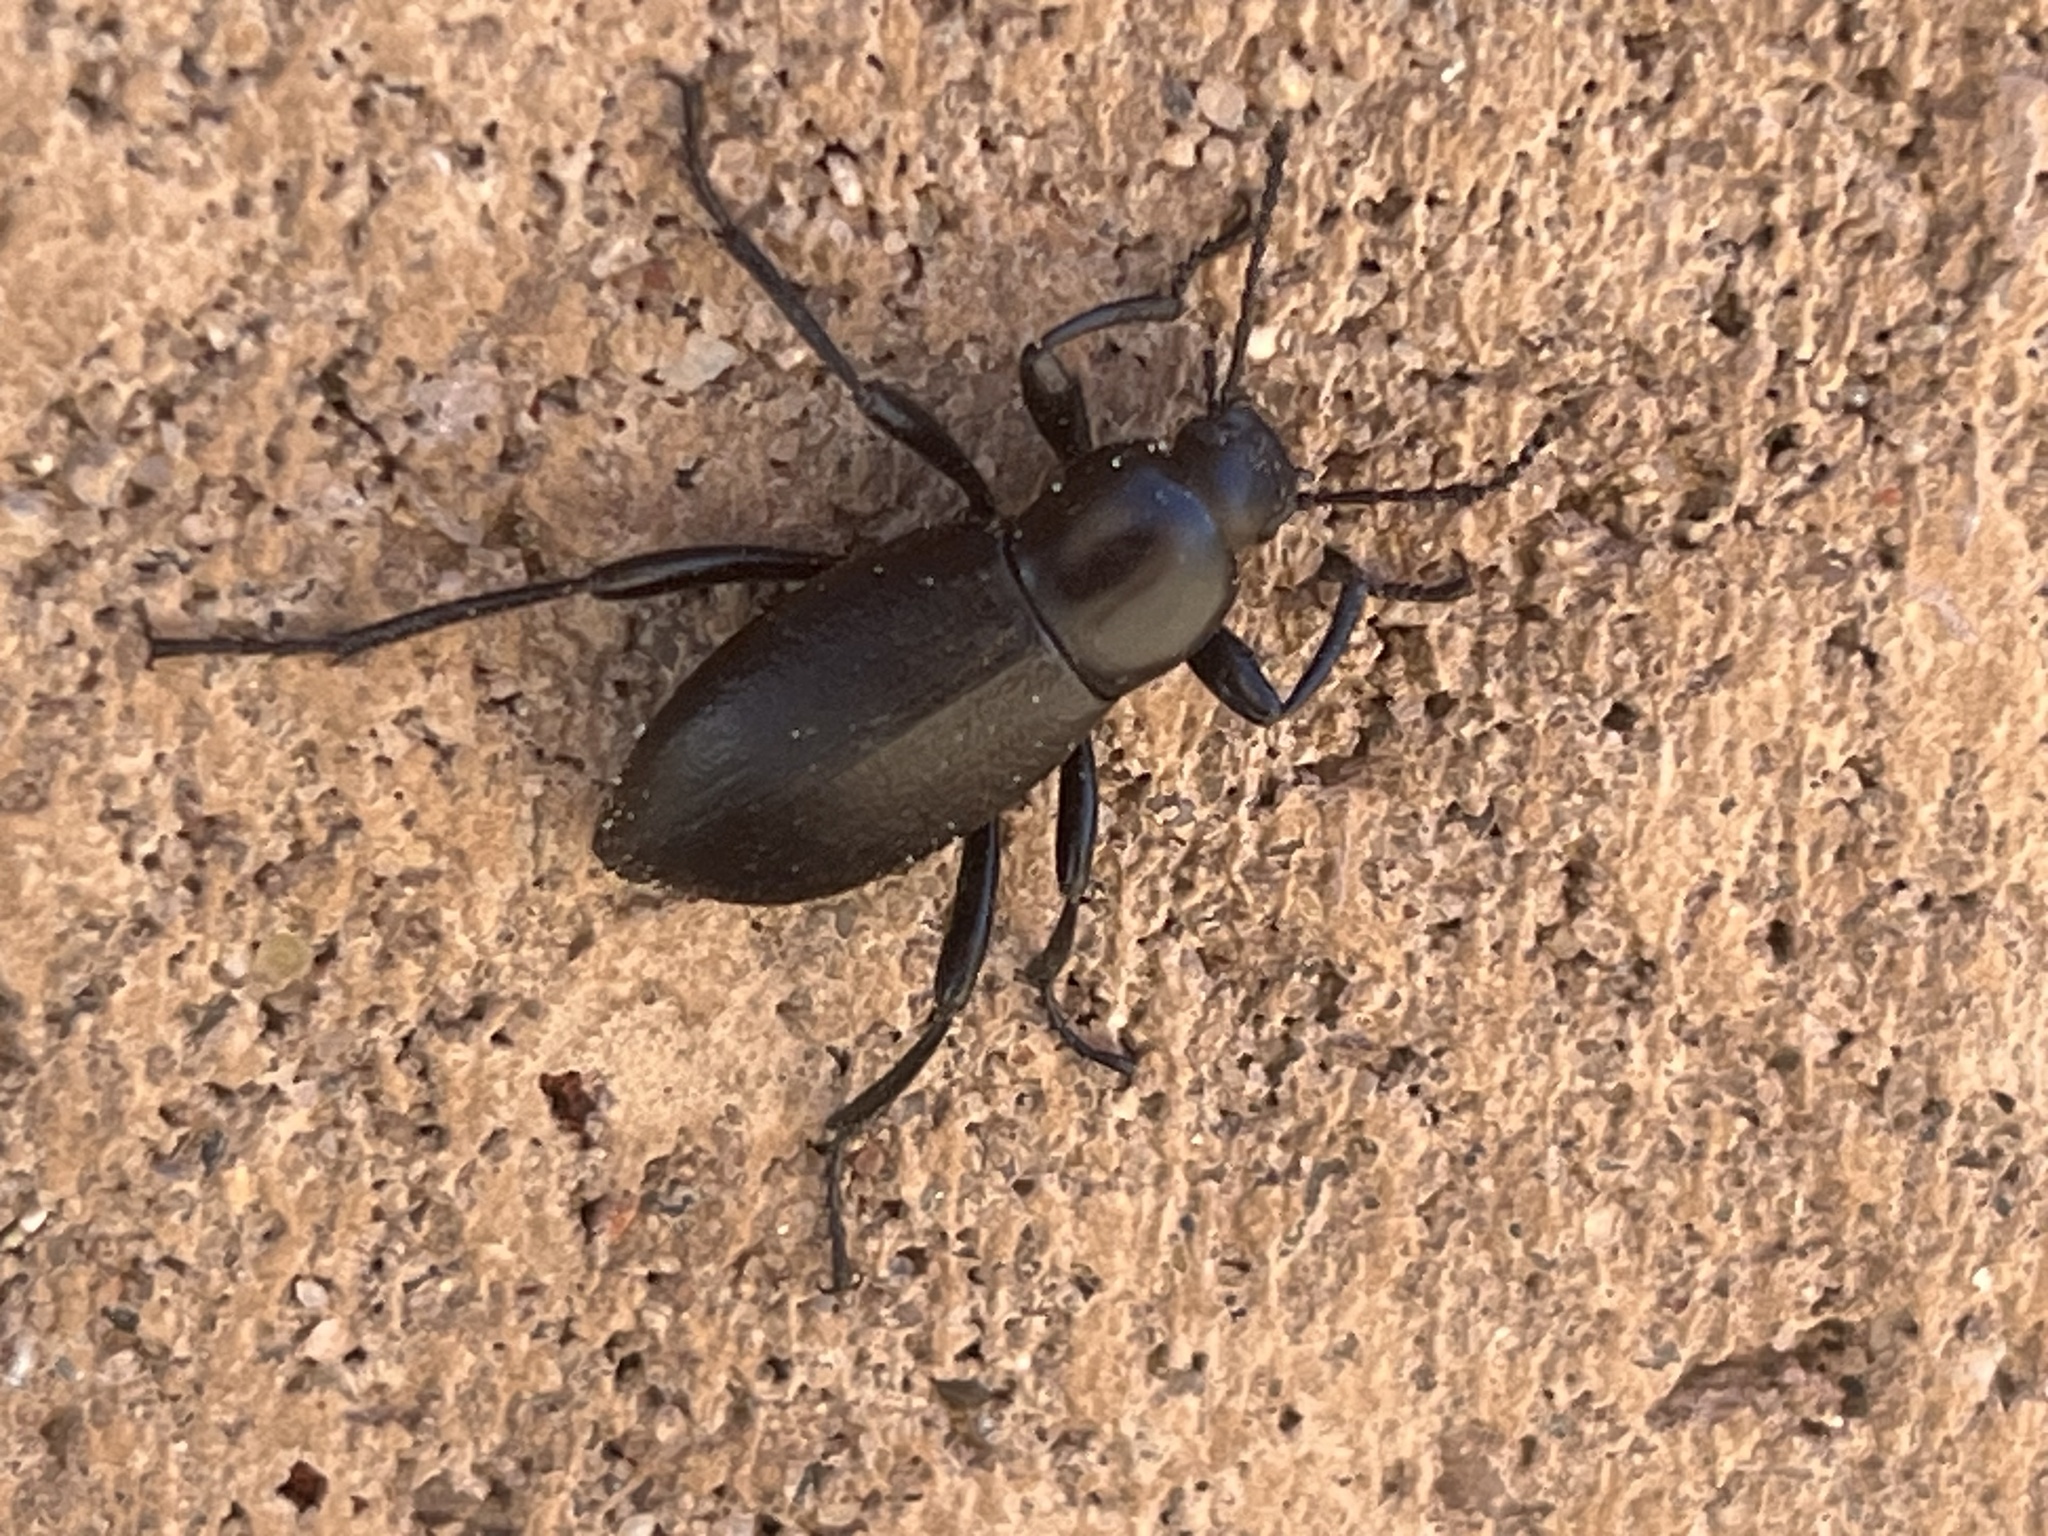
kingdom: Animalia
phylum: Arthropoda
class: Insecta
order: Coleoptera
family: Tenebrionidae
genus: Eleodes
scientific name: Eleodes extricata
